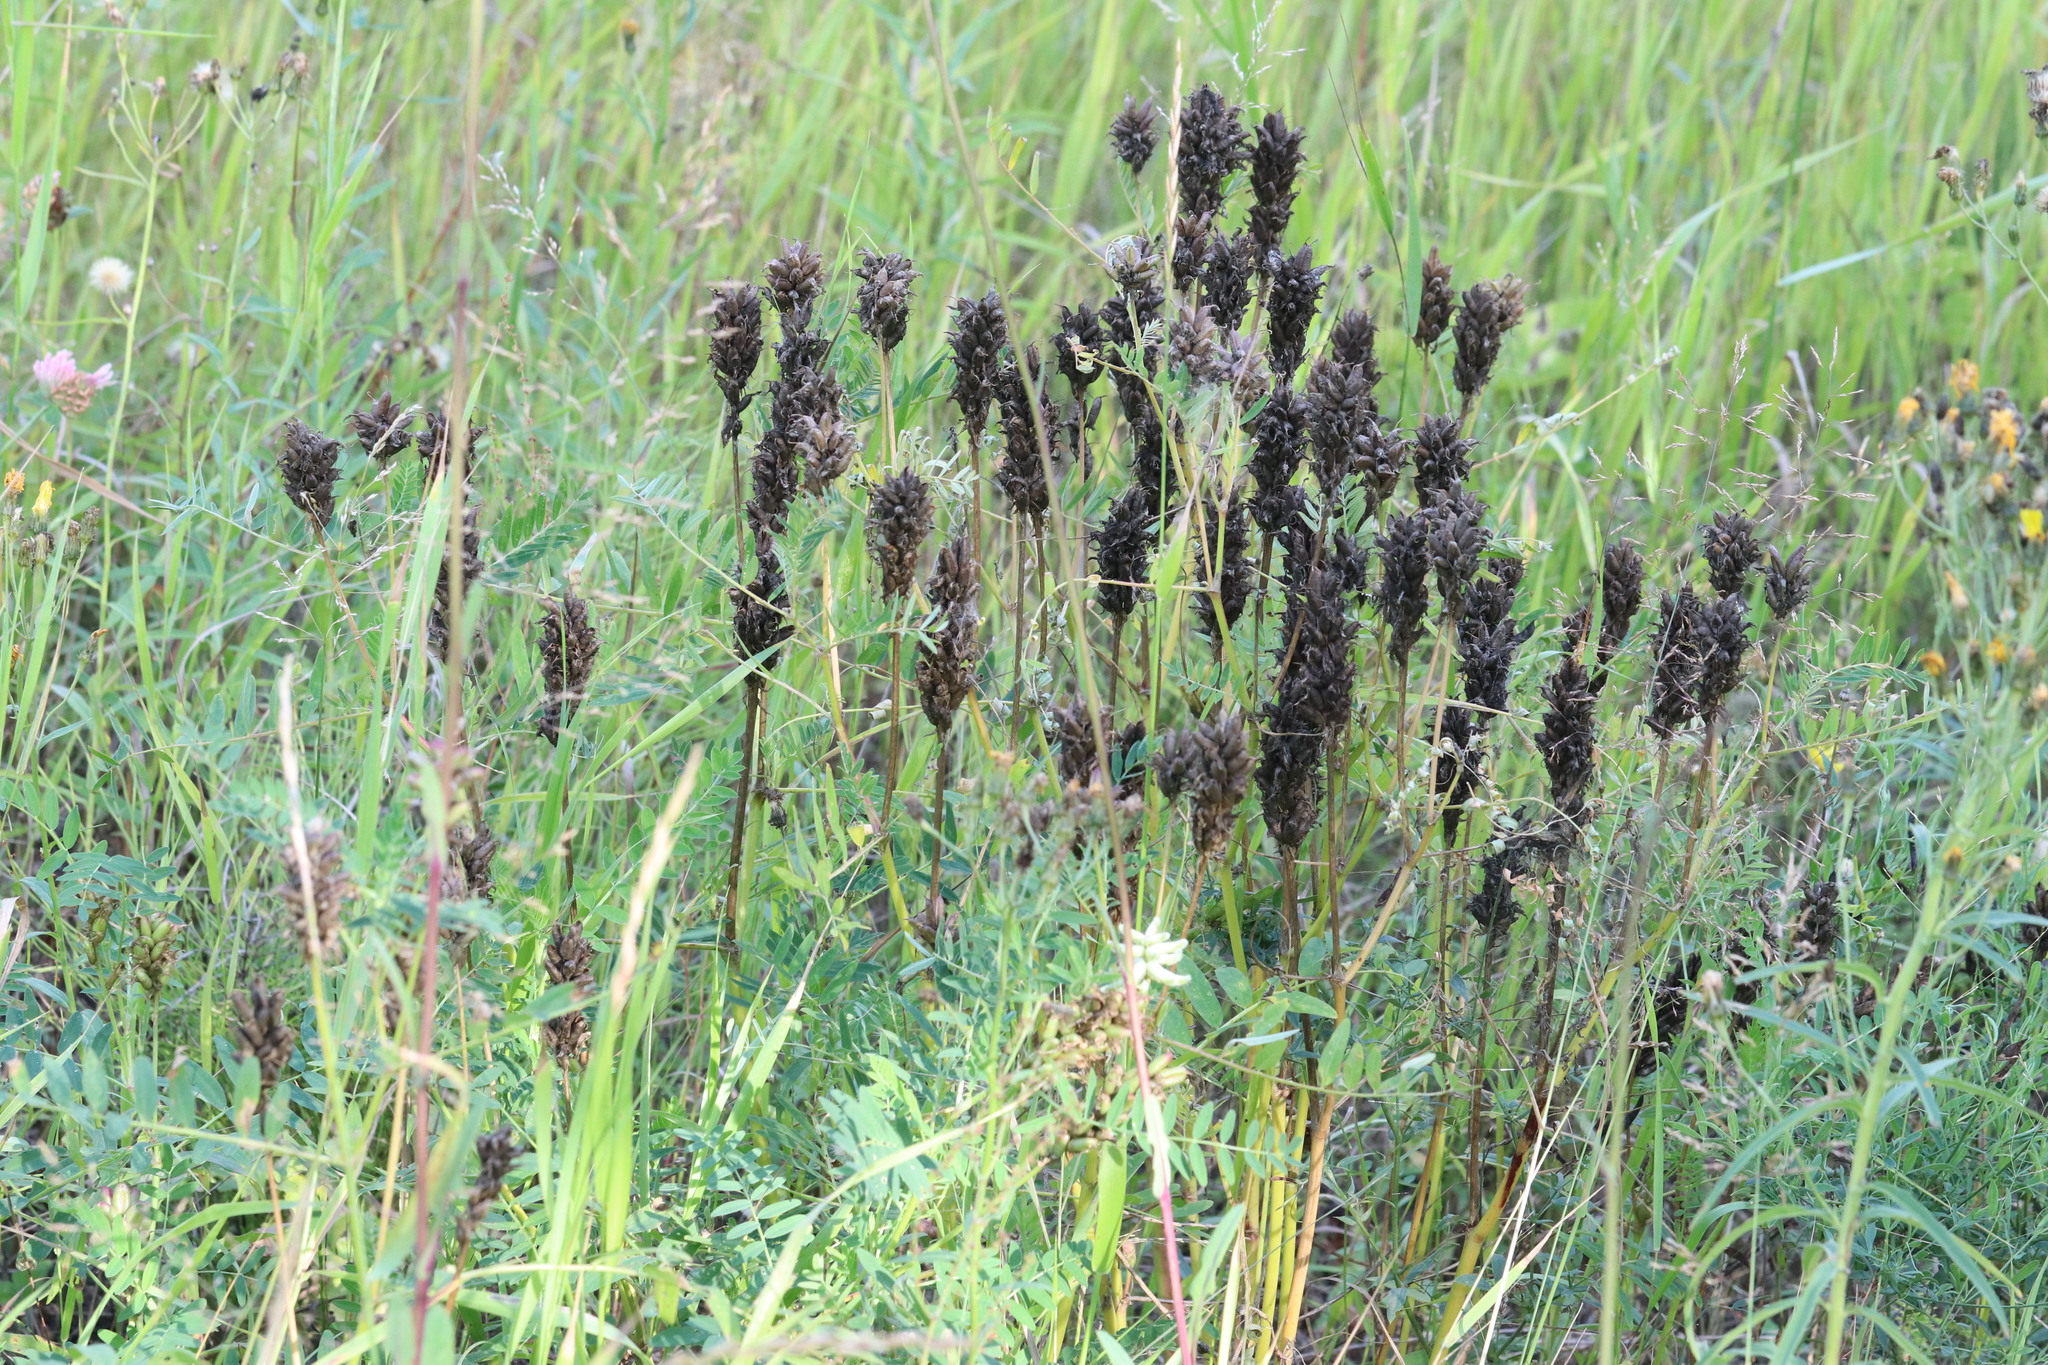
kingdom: Plantae
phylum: Tracheophyta
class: Magnoliopsida
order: Fabales
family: Fabaceae
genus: Astragalus
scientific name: Astragalus uliginosus
